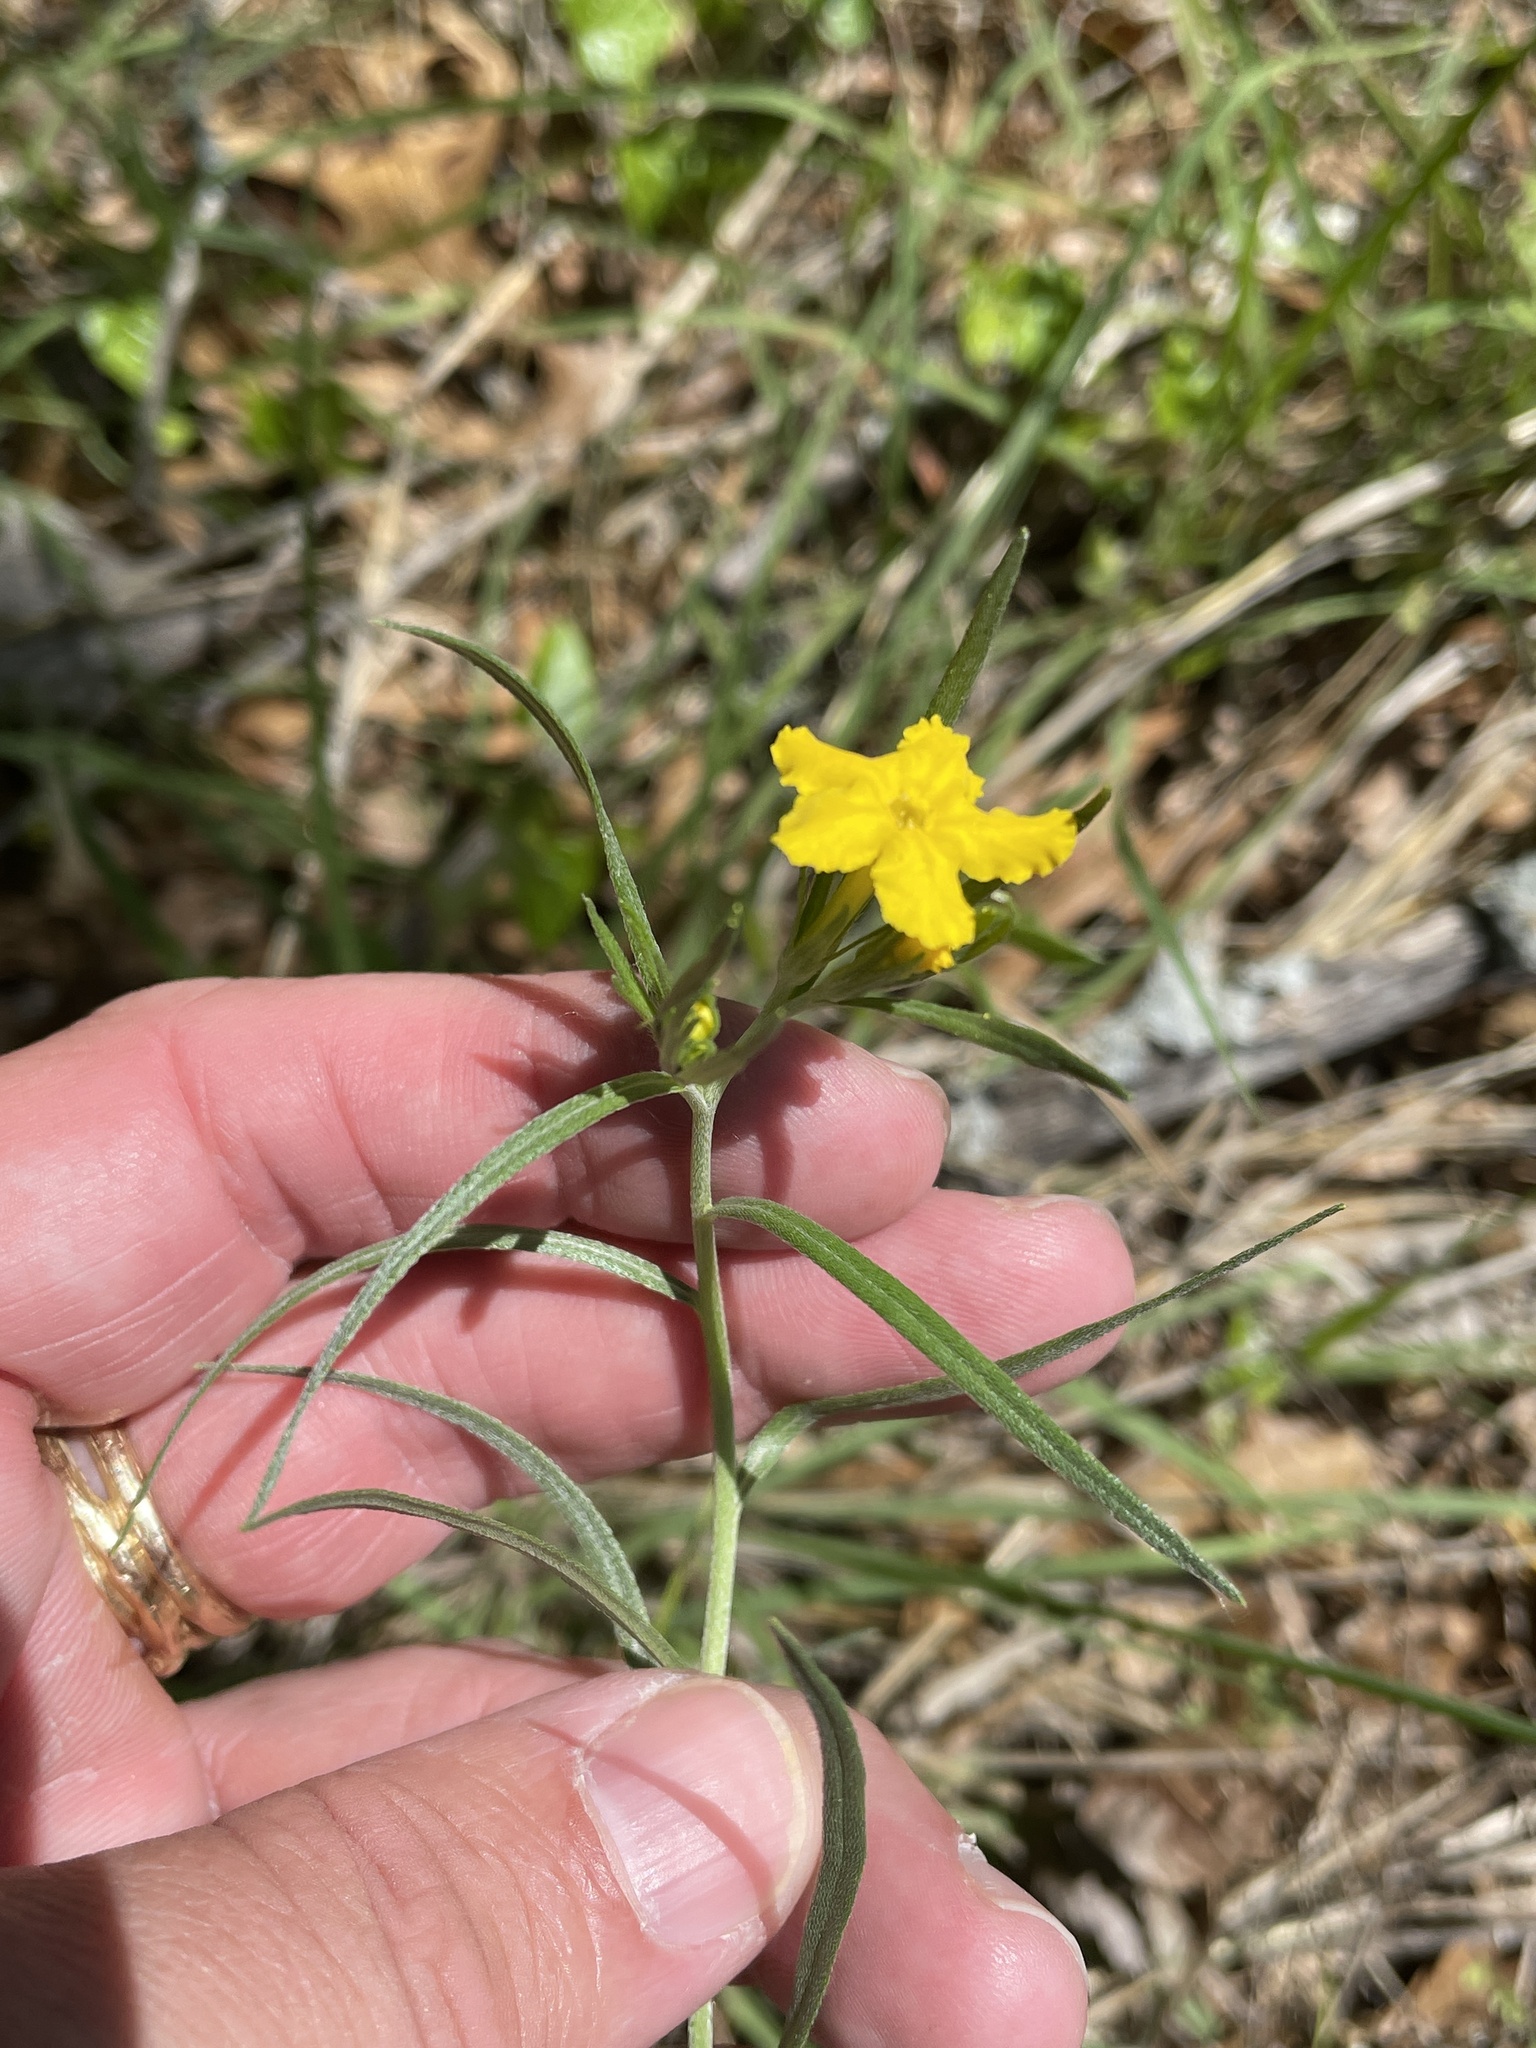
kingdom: Plantae
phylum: Tracheophyta
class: Magnoliopsida
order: Boraginales
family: Boraginaceae
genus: Lithospermum
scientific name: Lithospermum incisum
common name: Fringed gromwell
